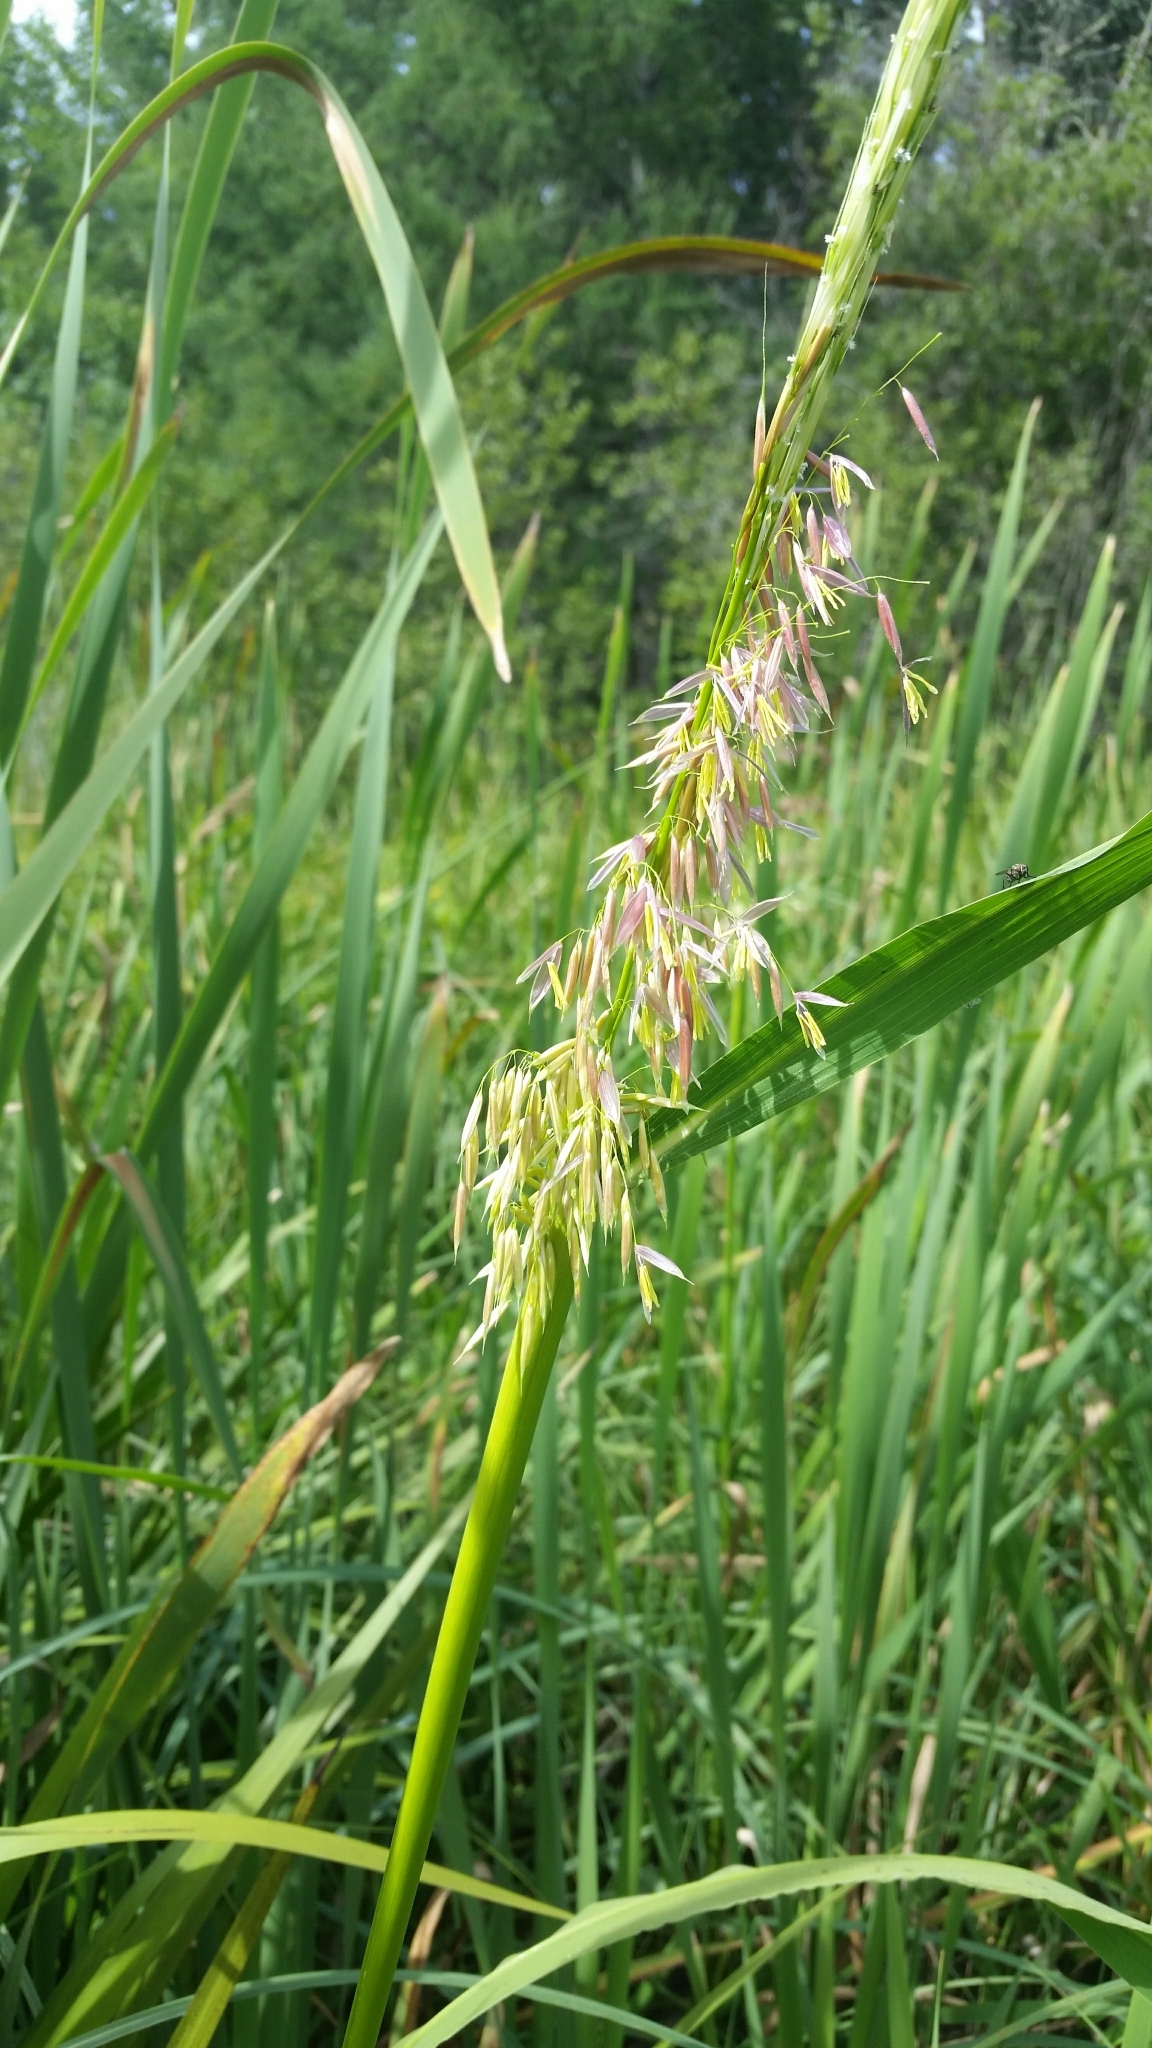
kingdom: Plantae
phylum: Tracheophyta
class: Liliopsida
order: Poales
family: Poaceae
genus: Zizania
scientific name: Zizania palustris
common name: Northern wild rice
